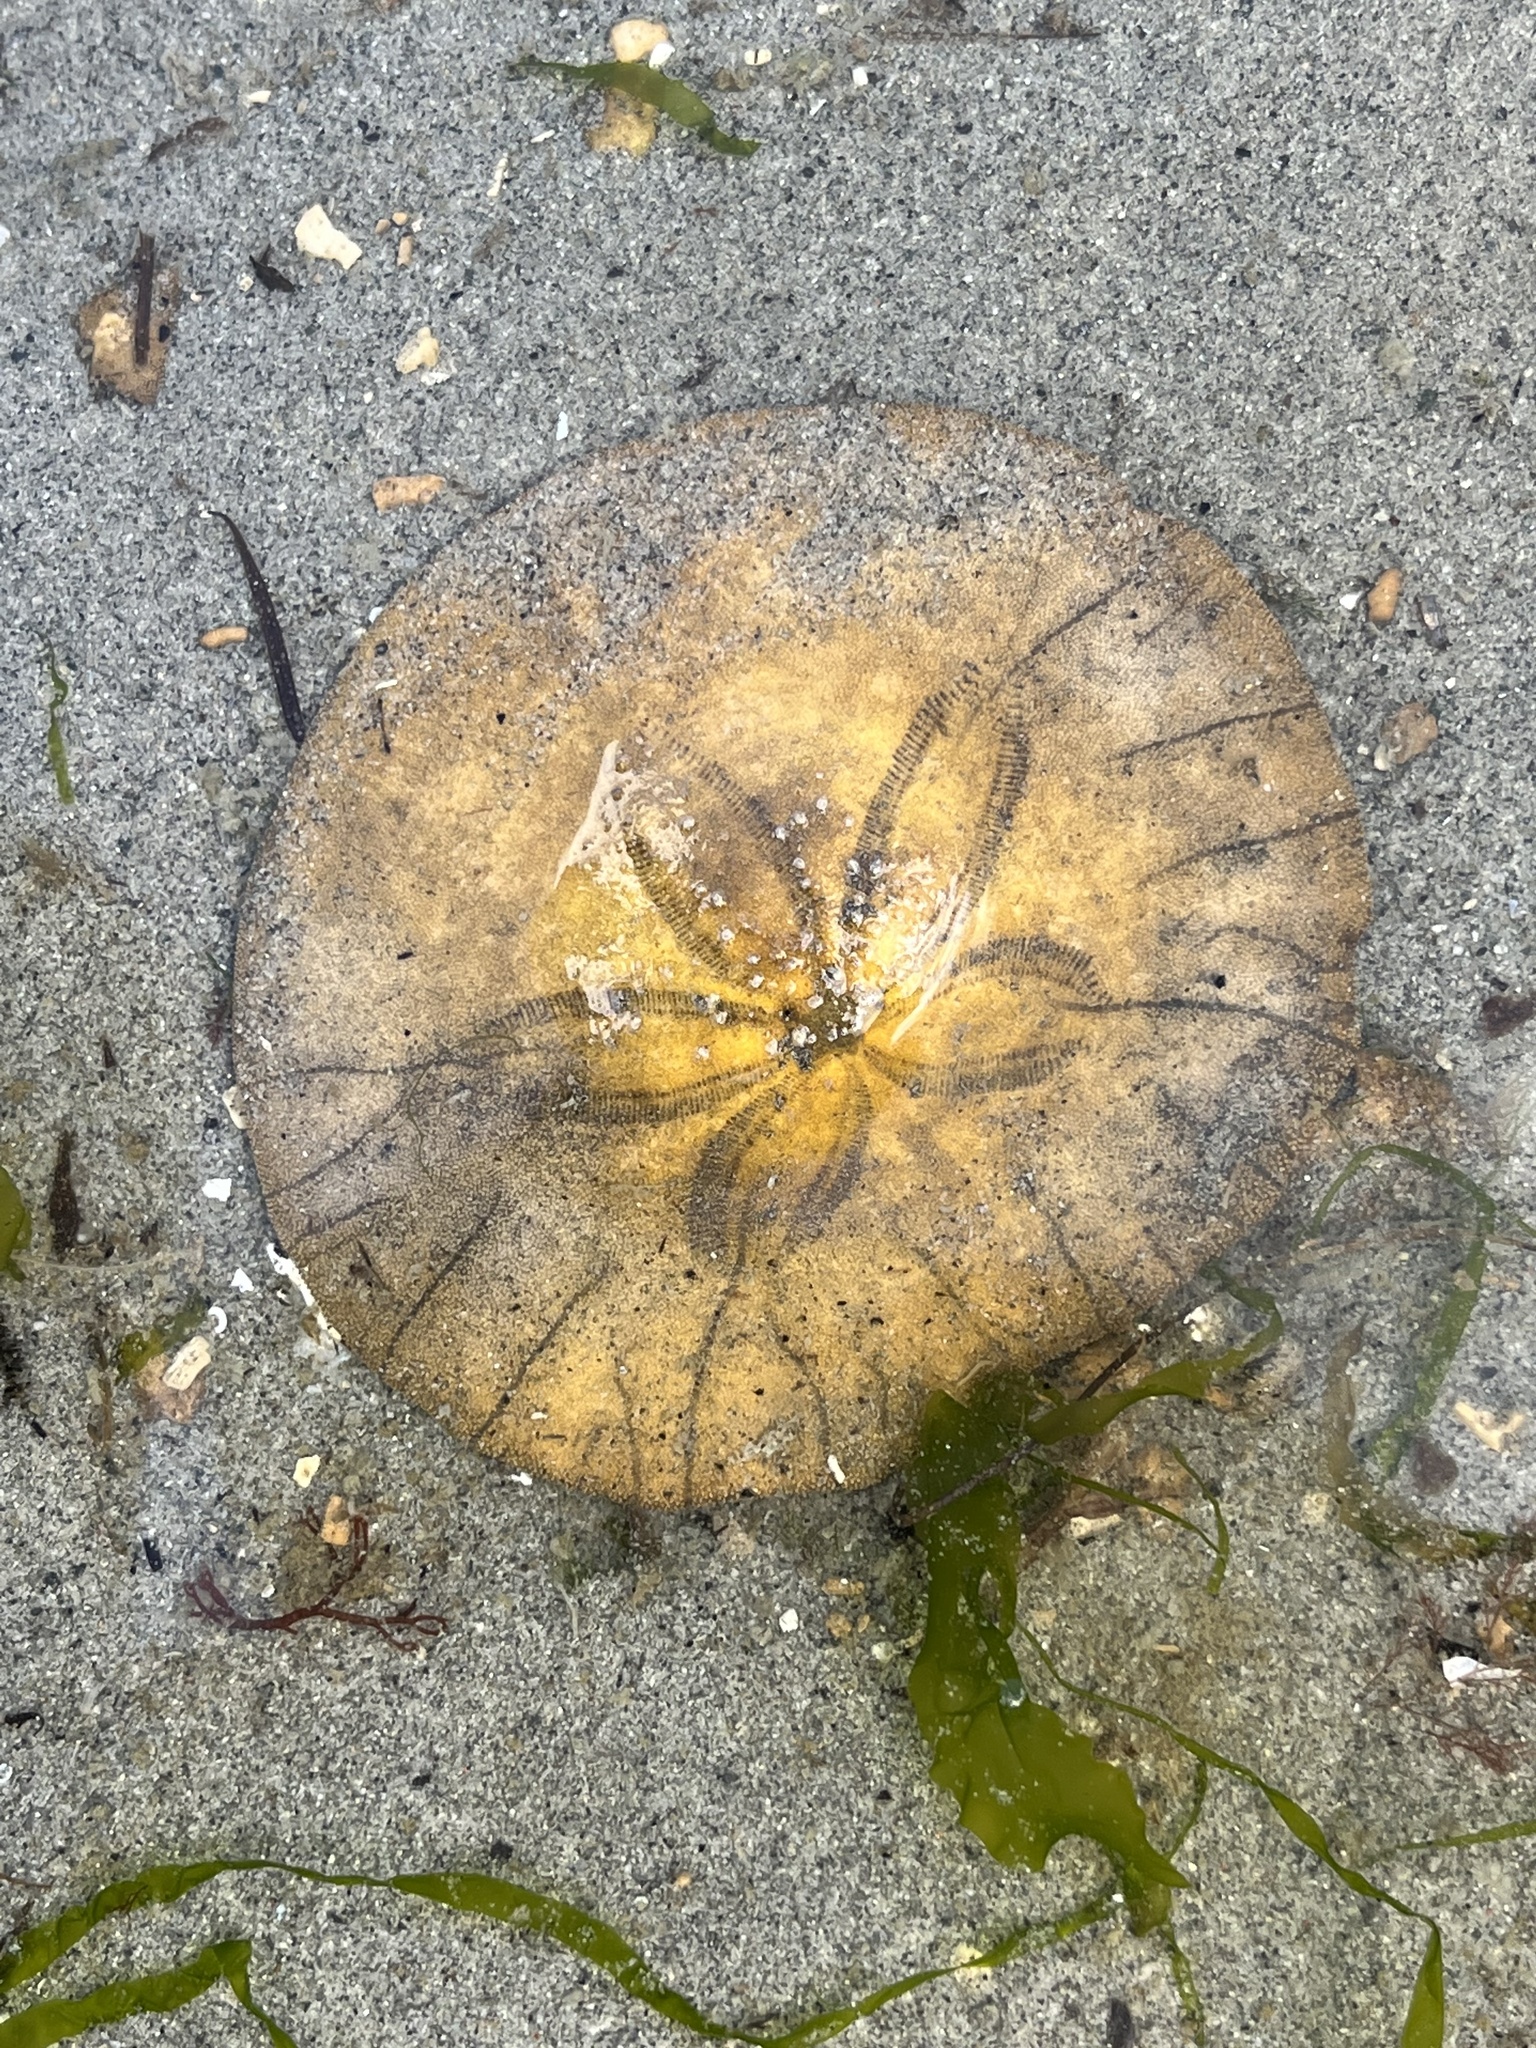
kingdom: Animalia
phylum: Echinodermata
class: Echinoidea
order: Echinolampadacea
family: Dendrasteridae
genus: Dendraster
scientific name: Dendraster excentricus
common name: Eccentric sand dollar sea urchin
